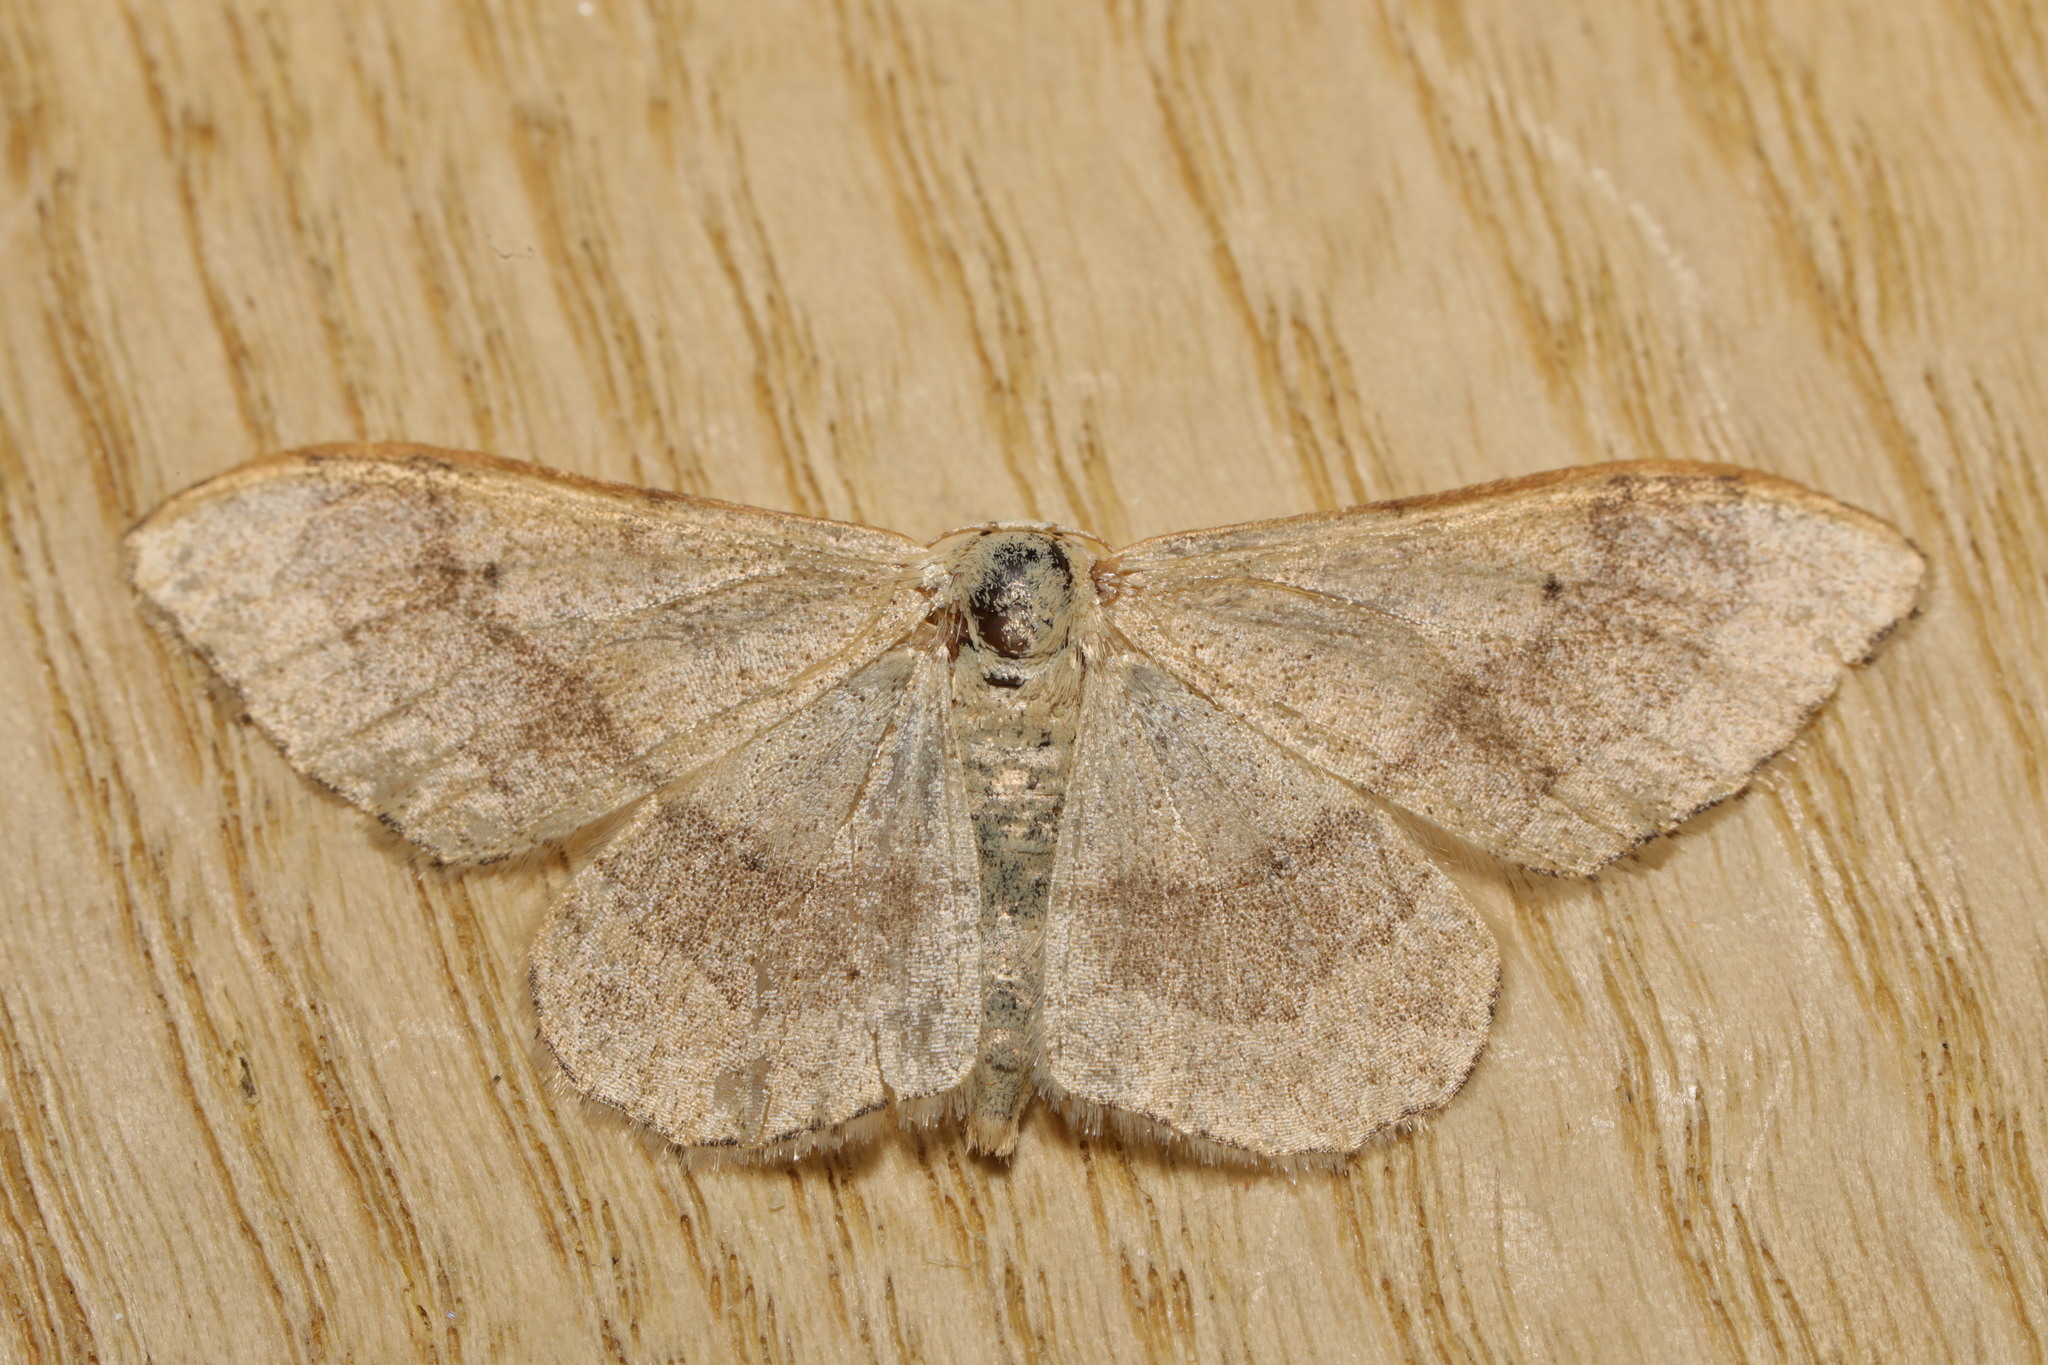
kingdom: Animalia
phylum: Arthropoda
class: Insecta
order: Lepidoptera
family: Geometridae
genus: Idaea
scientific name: Idaea aversata
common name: Riband wave
